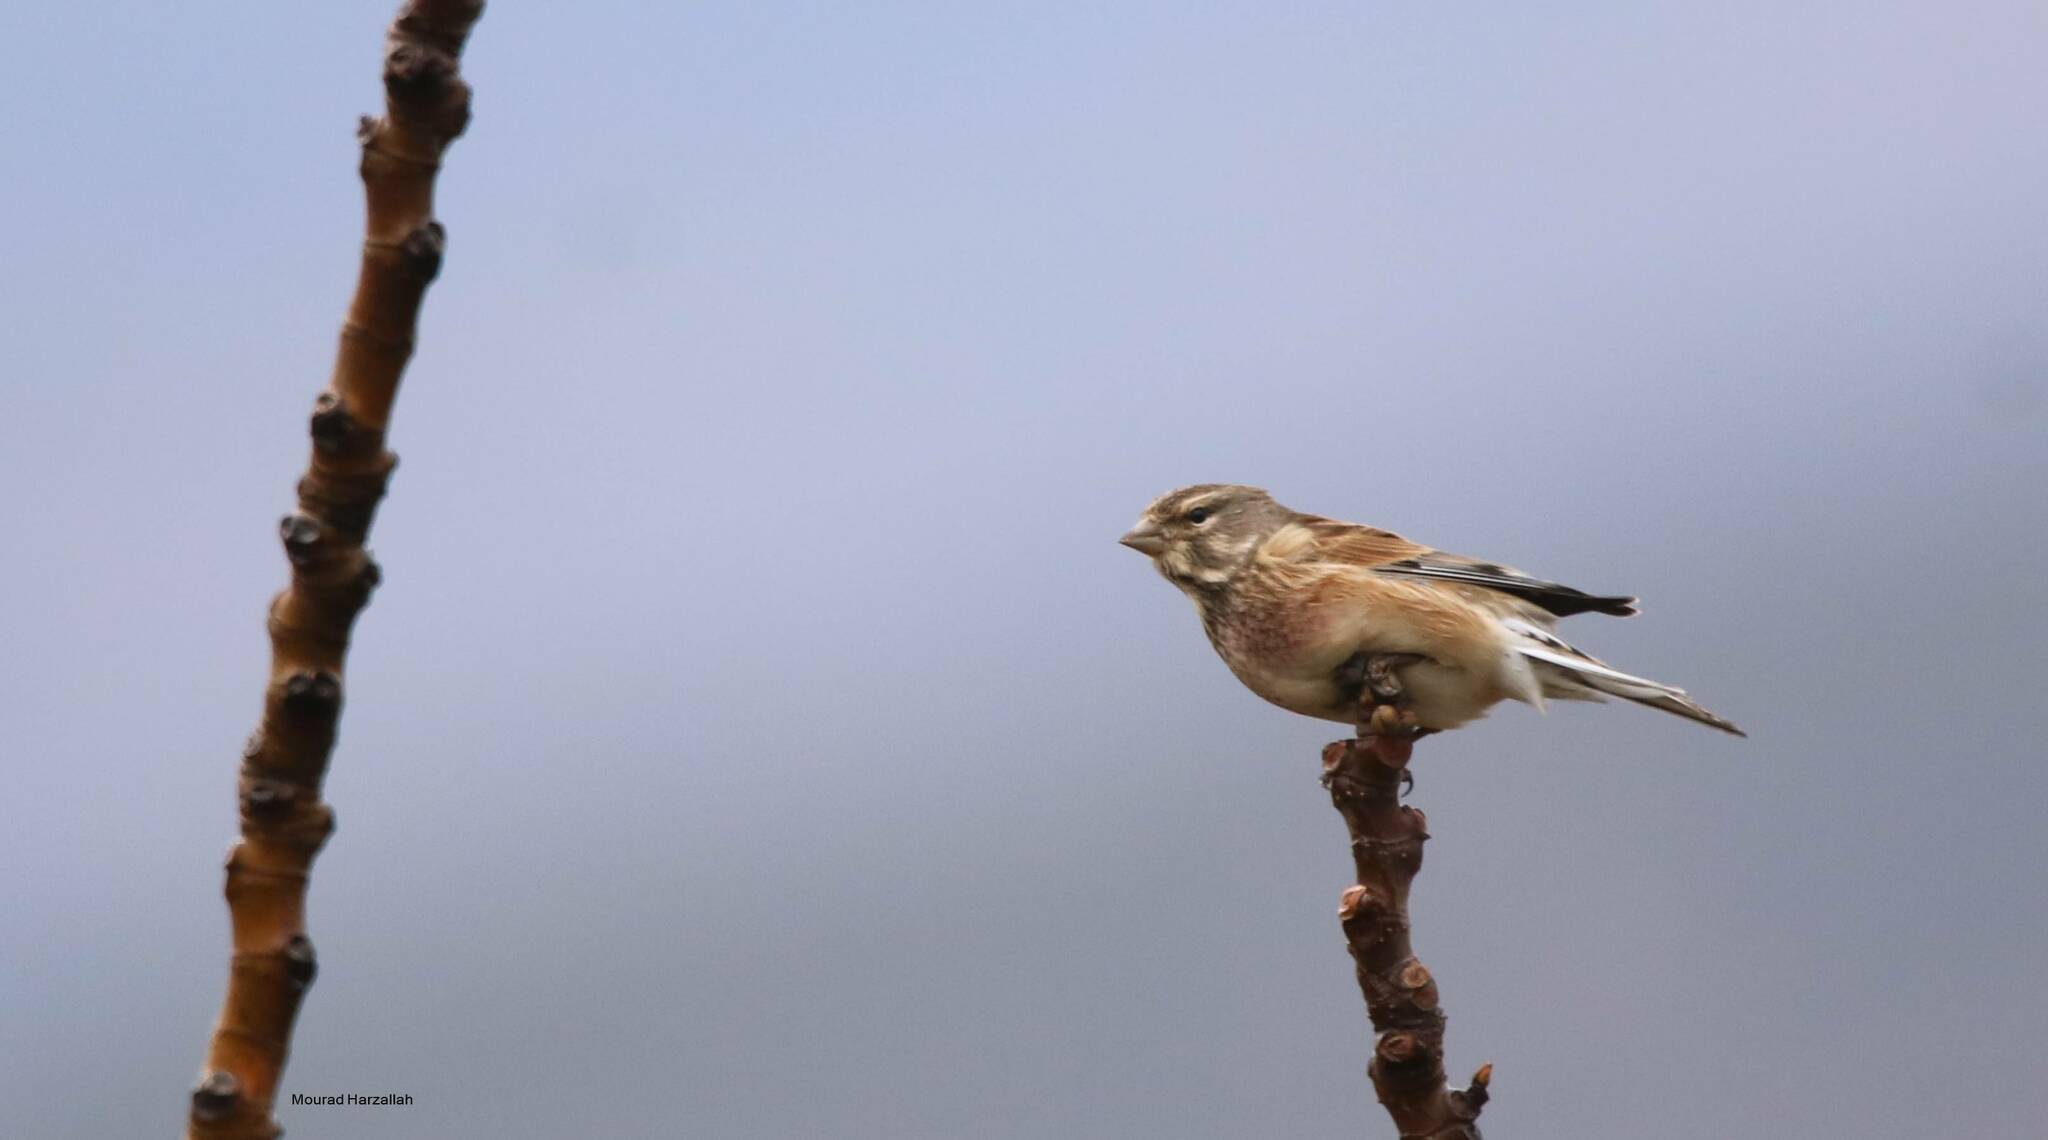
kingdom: Animalia
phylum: Chordata
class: Aves
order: Passeriformes
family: Fringillidae
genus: Linaria
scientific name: Linaria cannabina
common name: Common linnet
